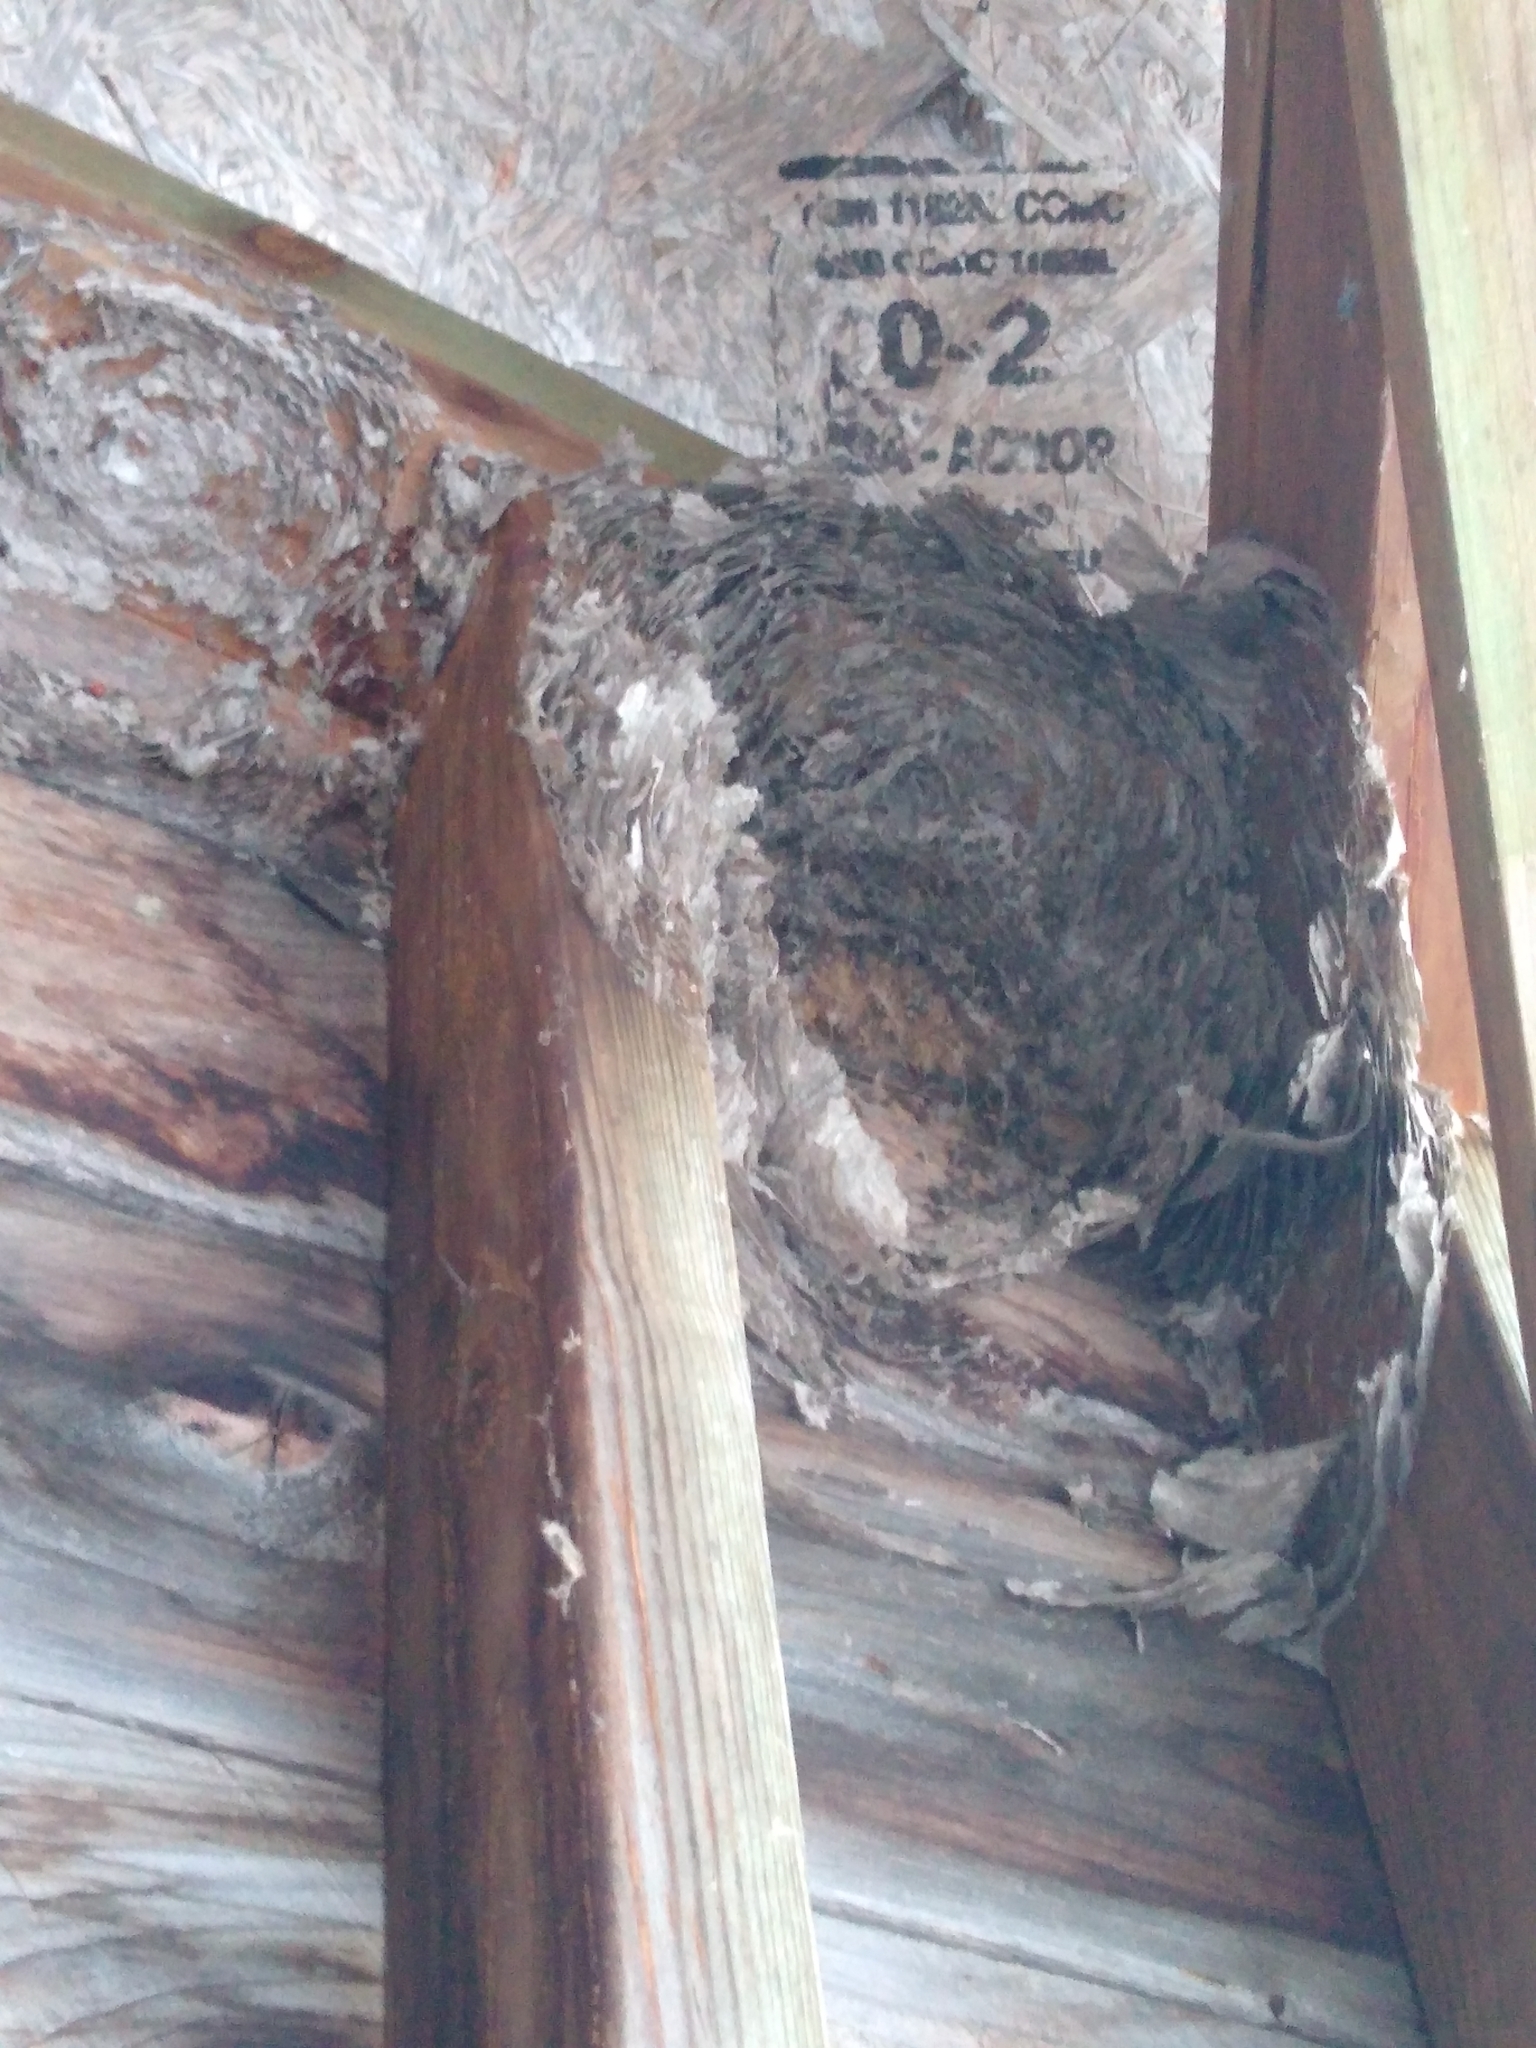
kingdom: Animalia
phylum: Arthropoda
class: Insecta
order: Hymenoptera
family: Vespidae
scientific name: Vespidae
